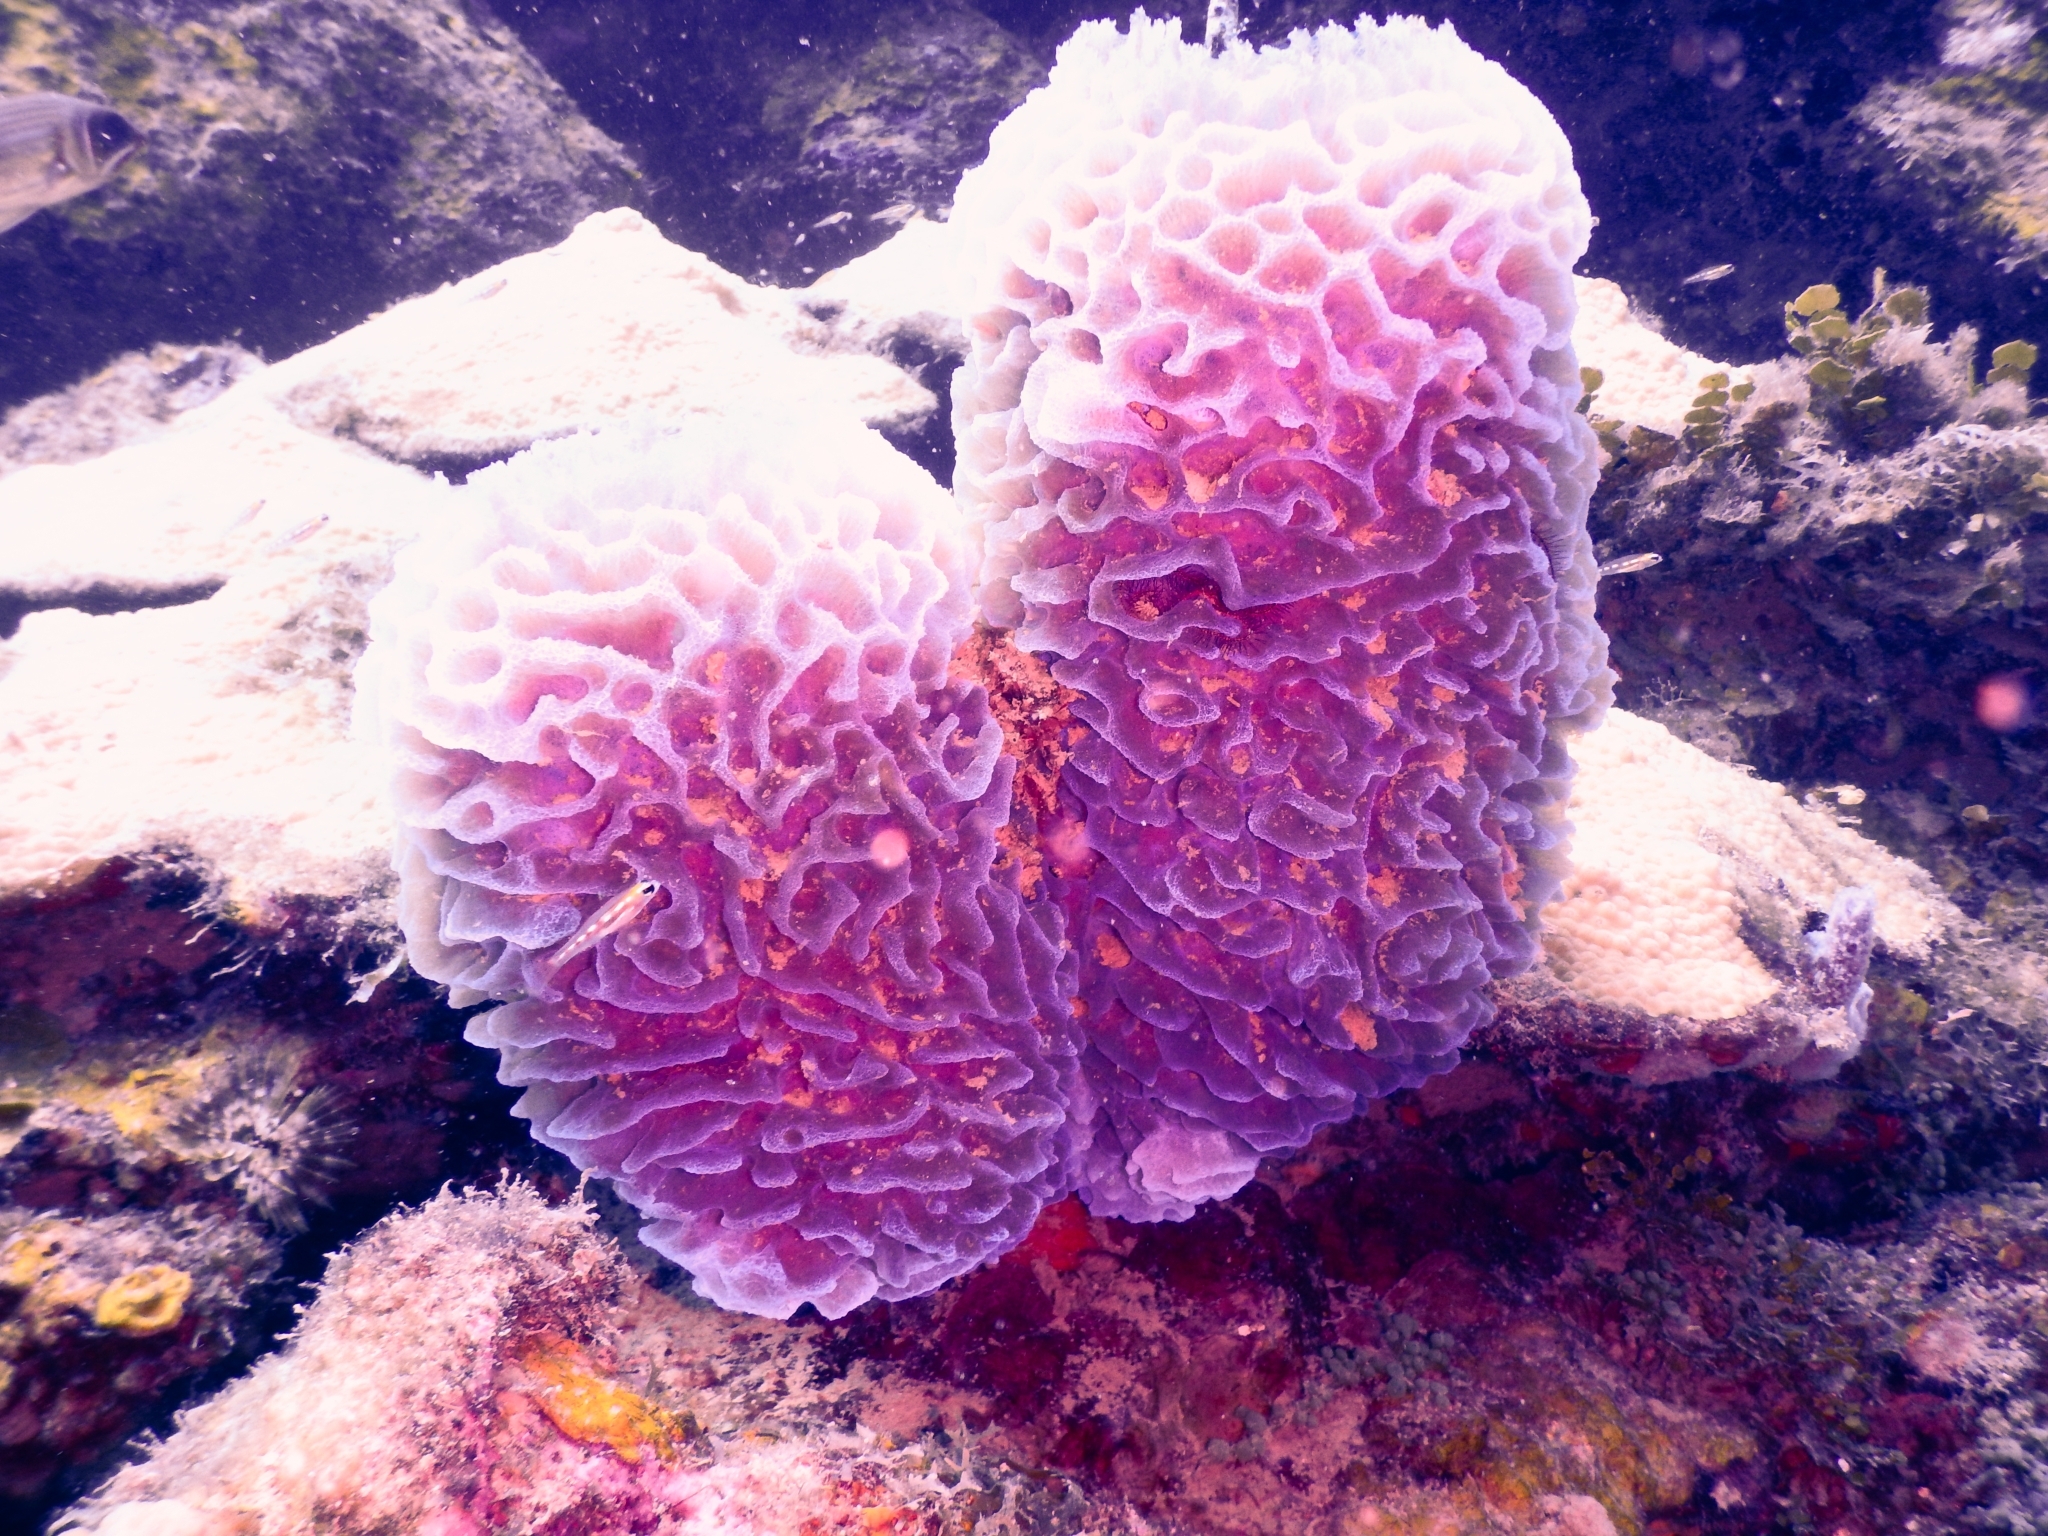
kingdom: Animalia
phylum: Porifera
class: Demospongiae
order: Haplosclerida
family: Callyspongiidae
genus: Callyspongia
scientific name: Callyspongia plicifera
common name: Azure vase sponge
